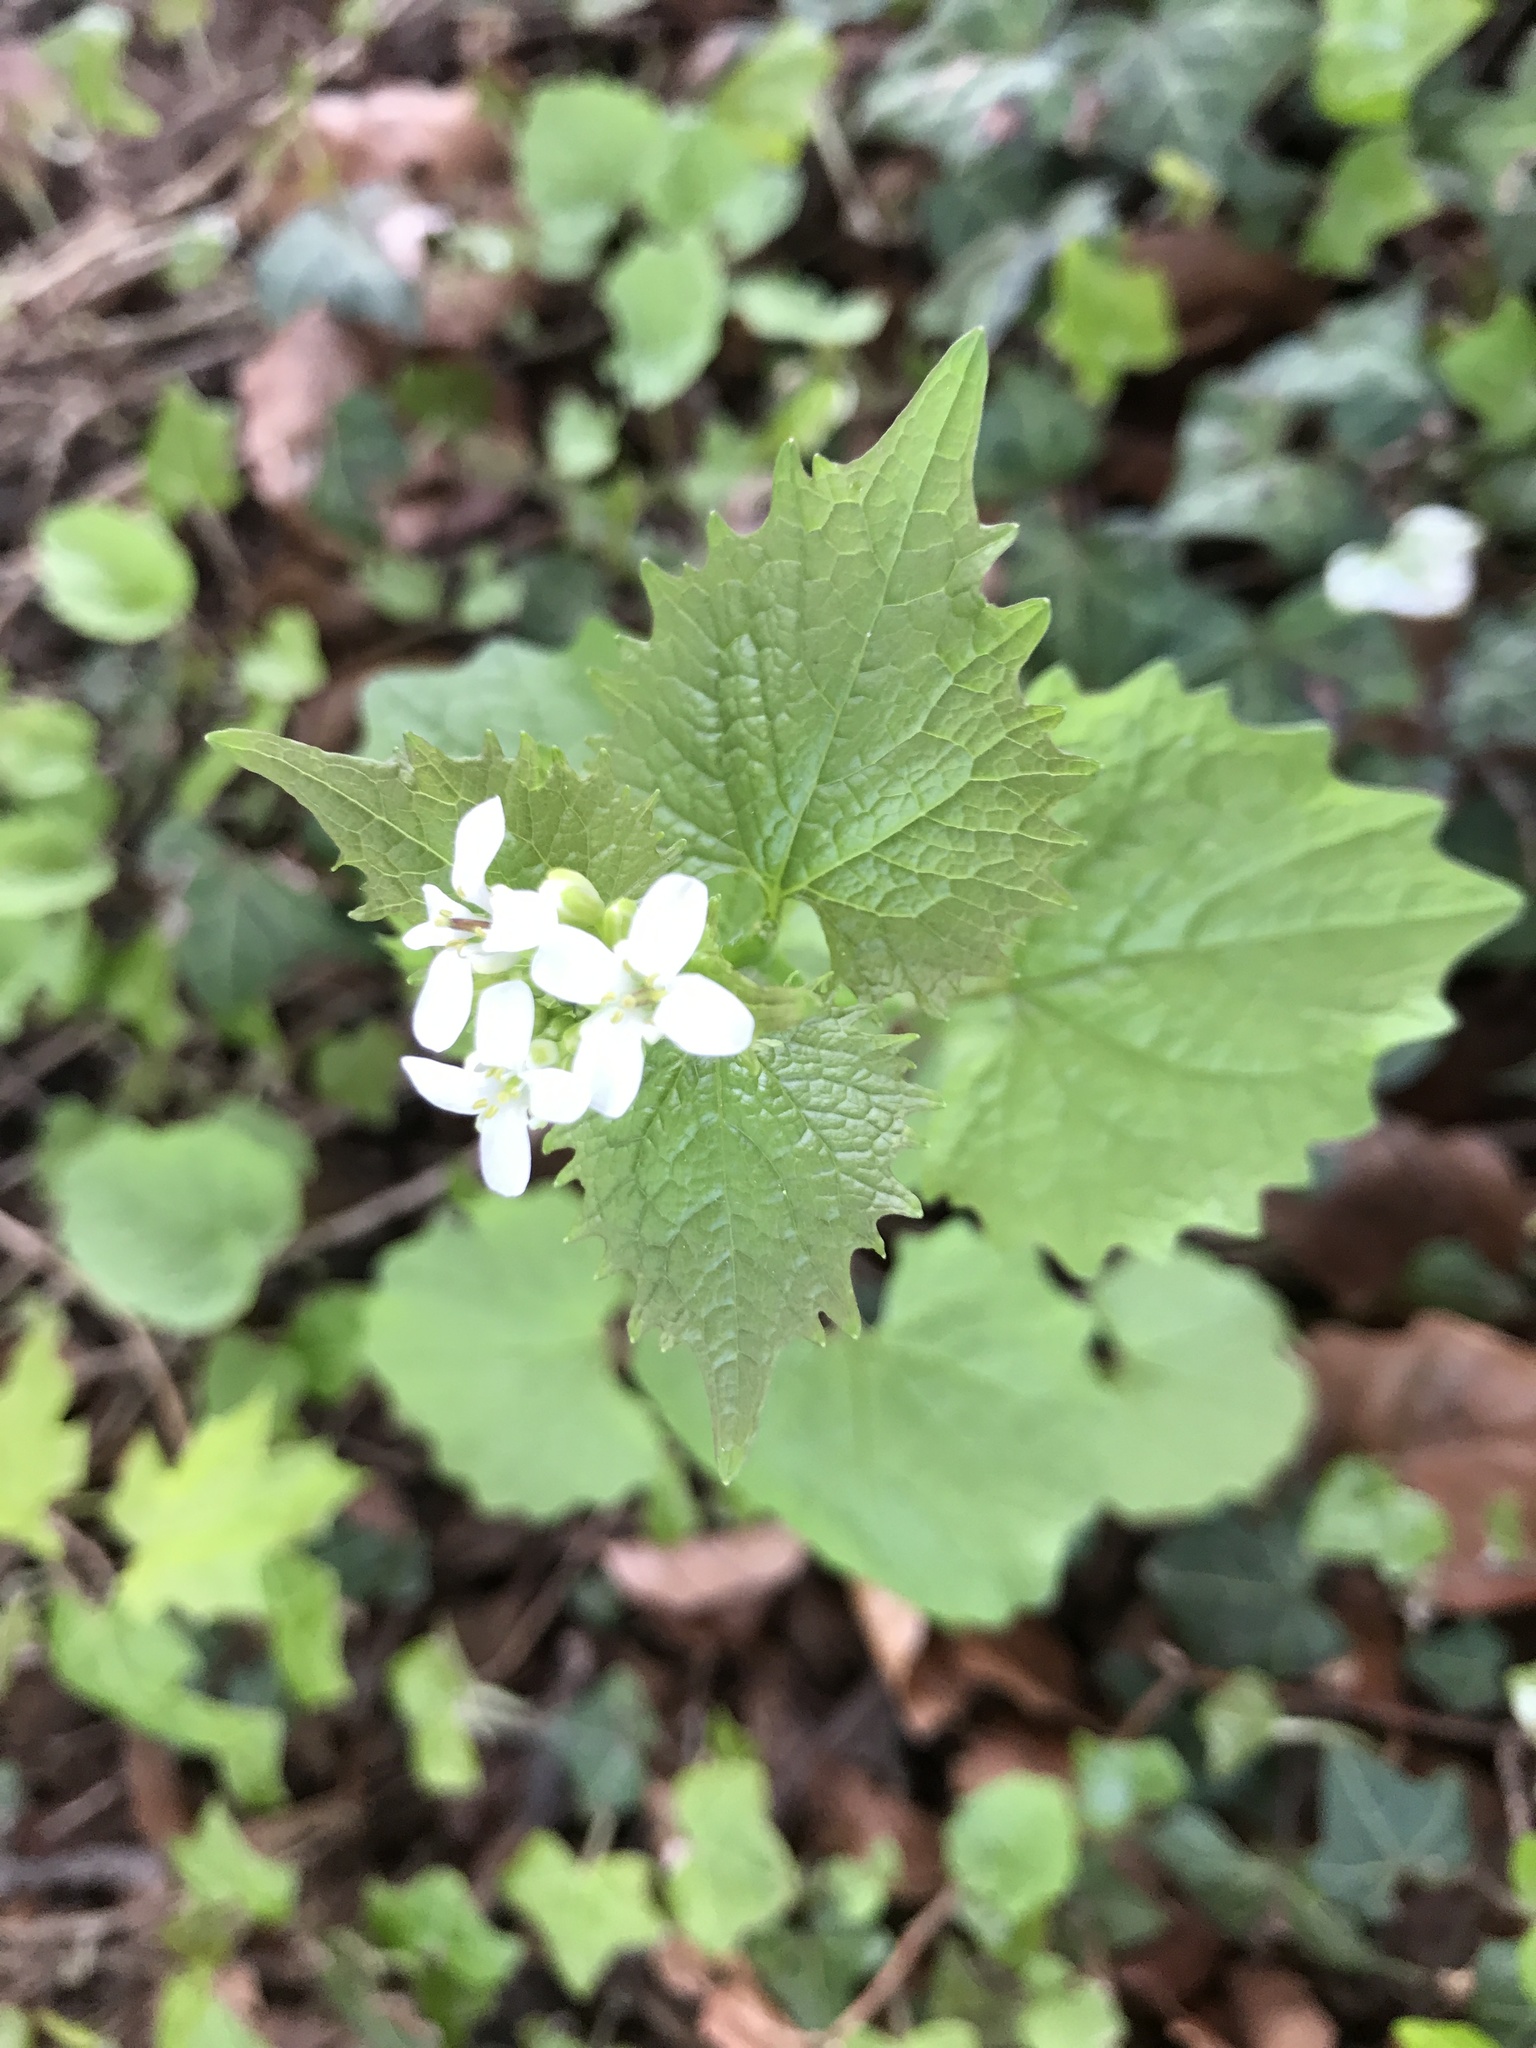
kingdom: Plantae
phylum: Tracheophyta
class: Magnoliopsida
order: Brassicales
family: Brassicaceae
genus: Alliaria
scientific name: Alliaria petiolata
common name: Garlic mustard
